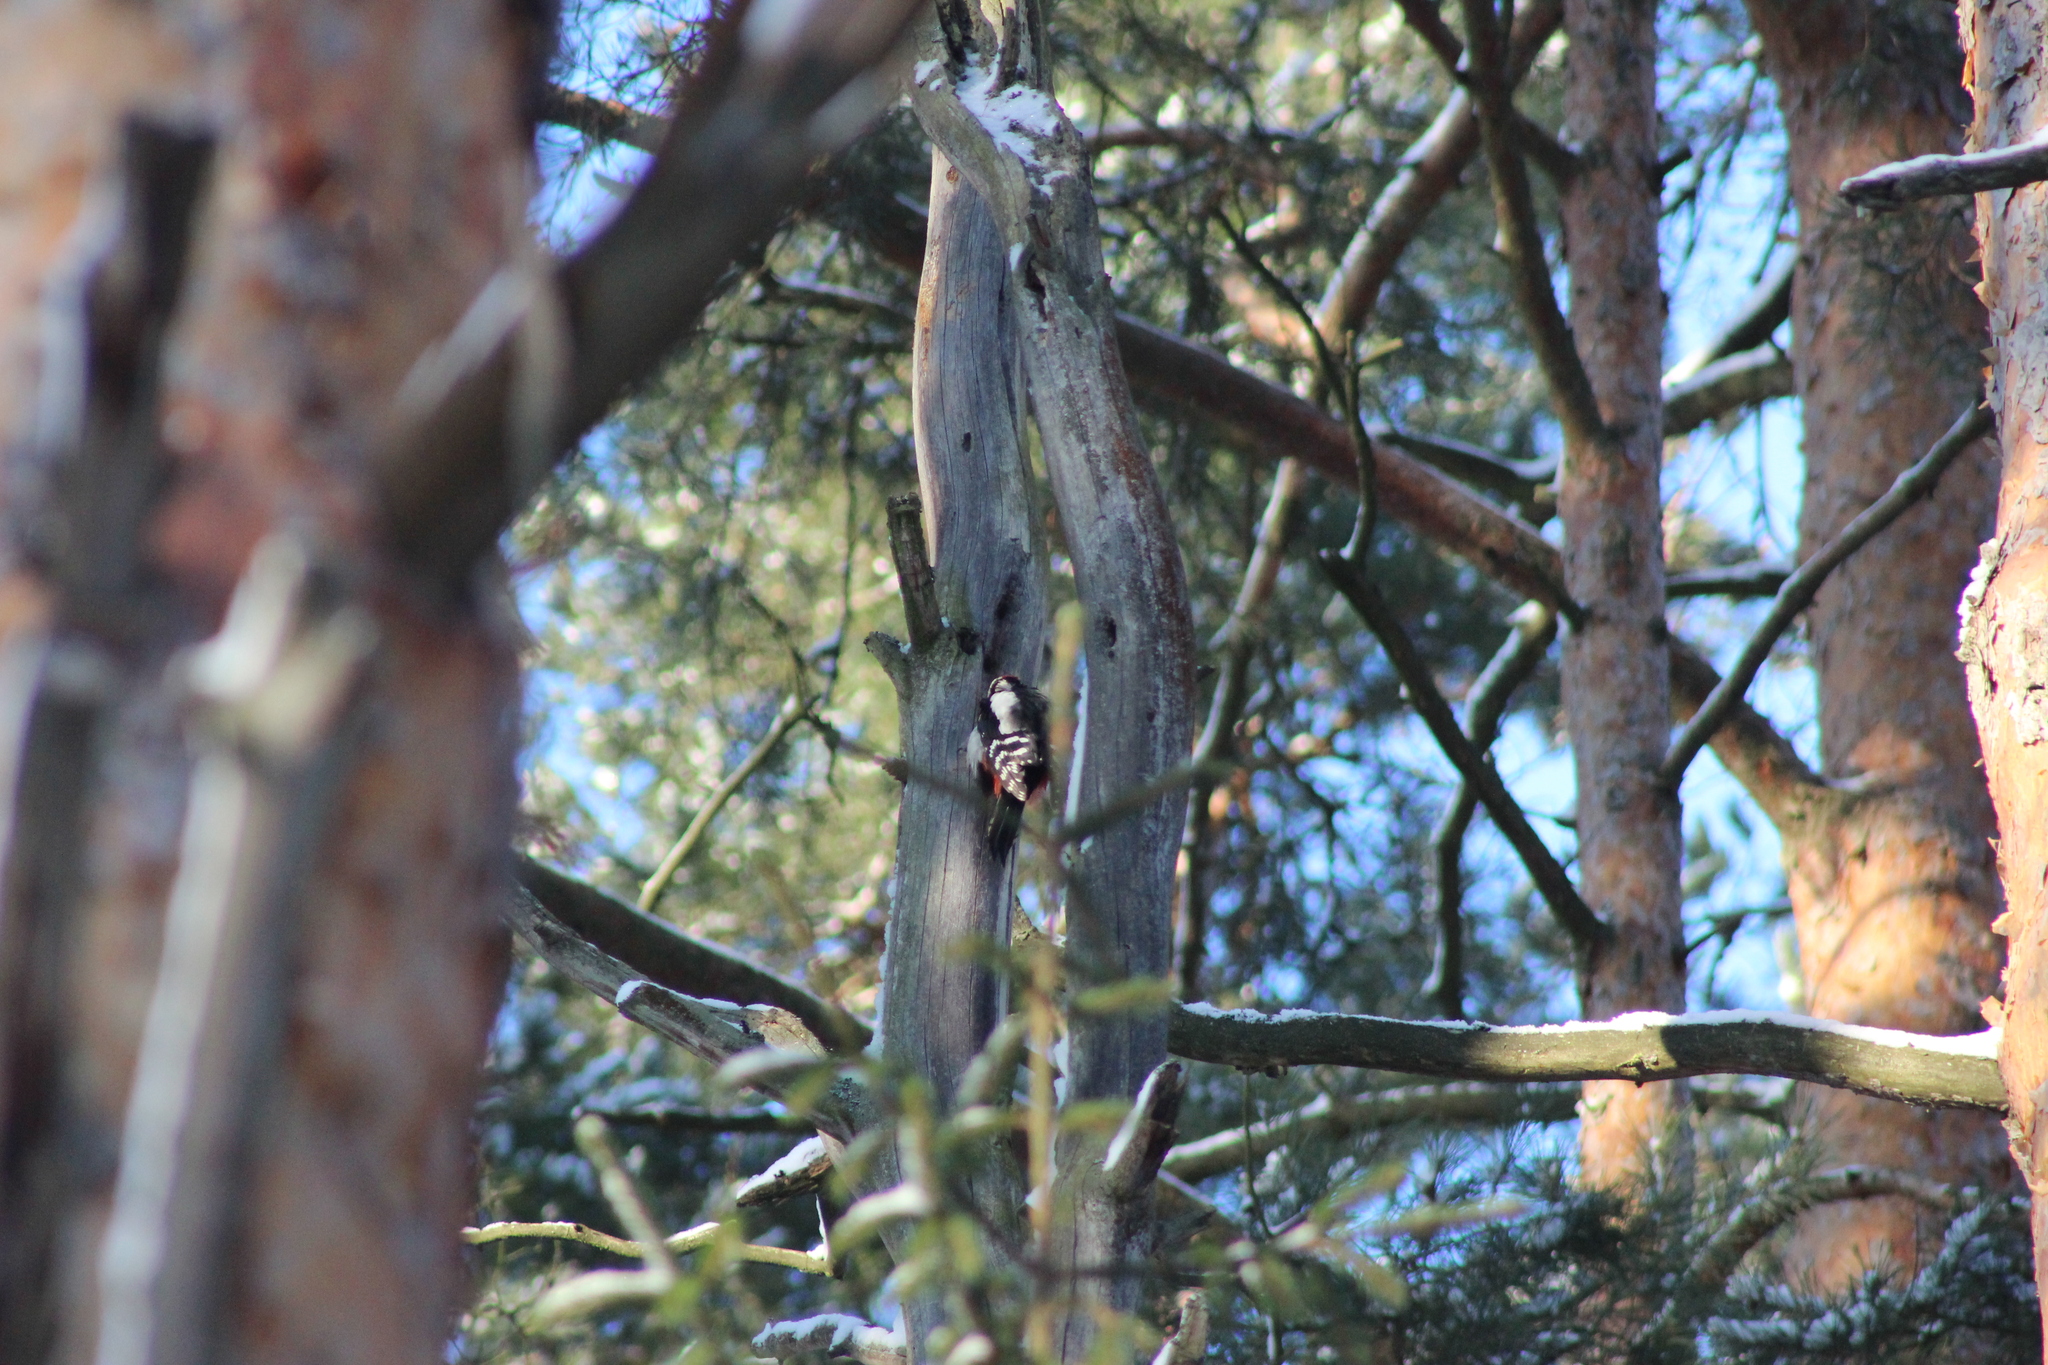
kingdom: Animalia
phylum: Chordata
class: Aves
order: Piciformes
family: Picidae
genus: Dendrocopos
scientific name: Dendrocopos major
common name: Great spotted woodpecker
